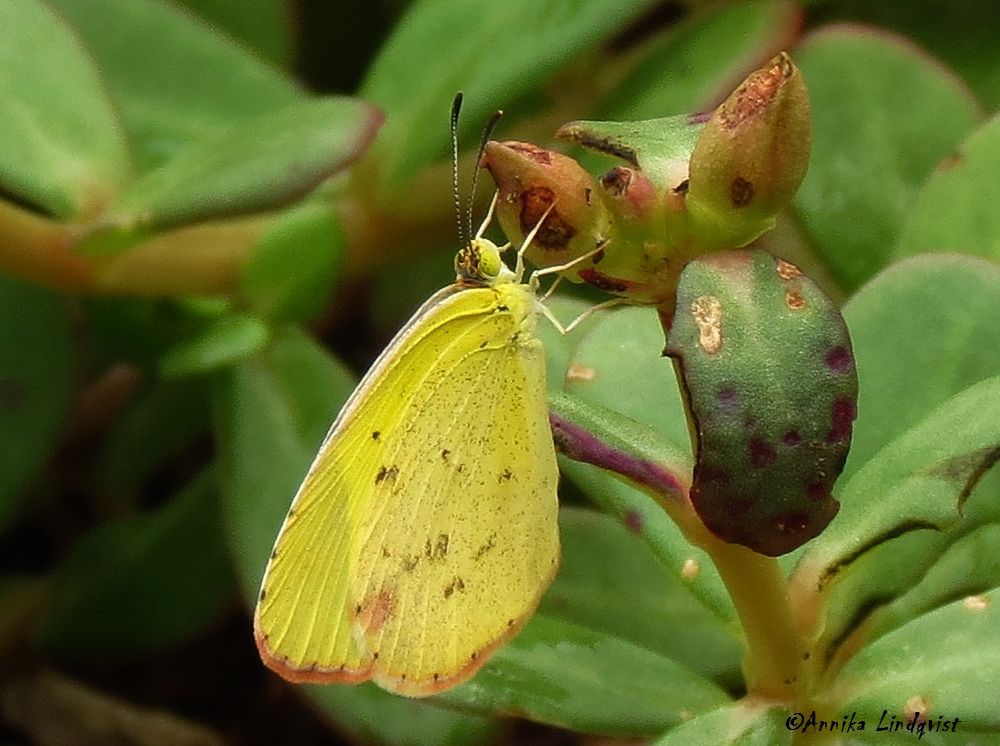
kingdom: Animalia
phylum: Arthropoda
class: Insecta
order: Lepidoptera
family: Pieridae
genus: Pyrisitia
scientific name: Pyrisitia lisa
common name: Little yellow
